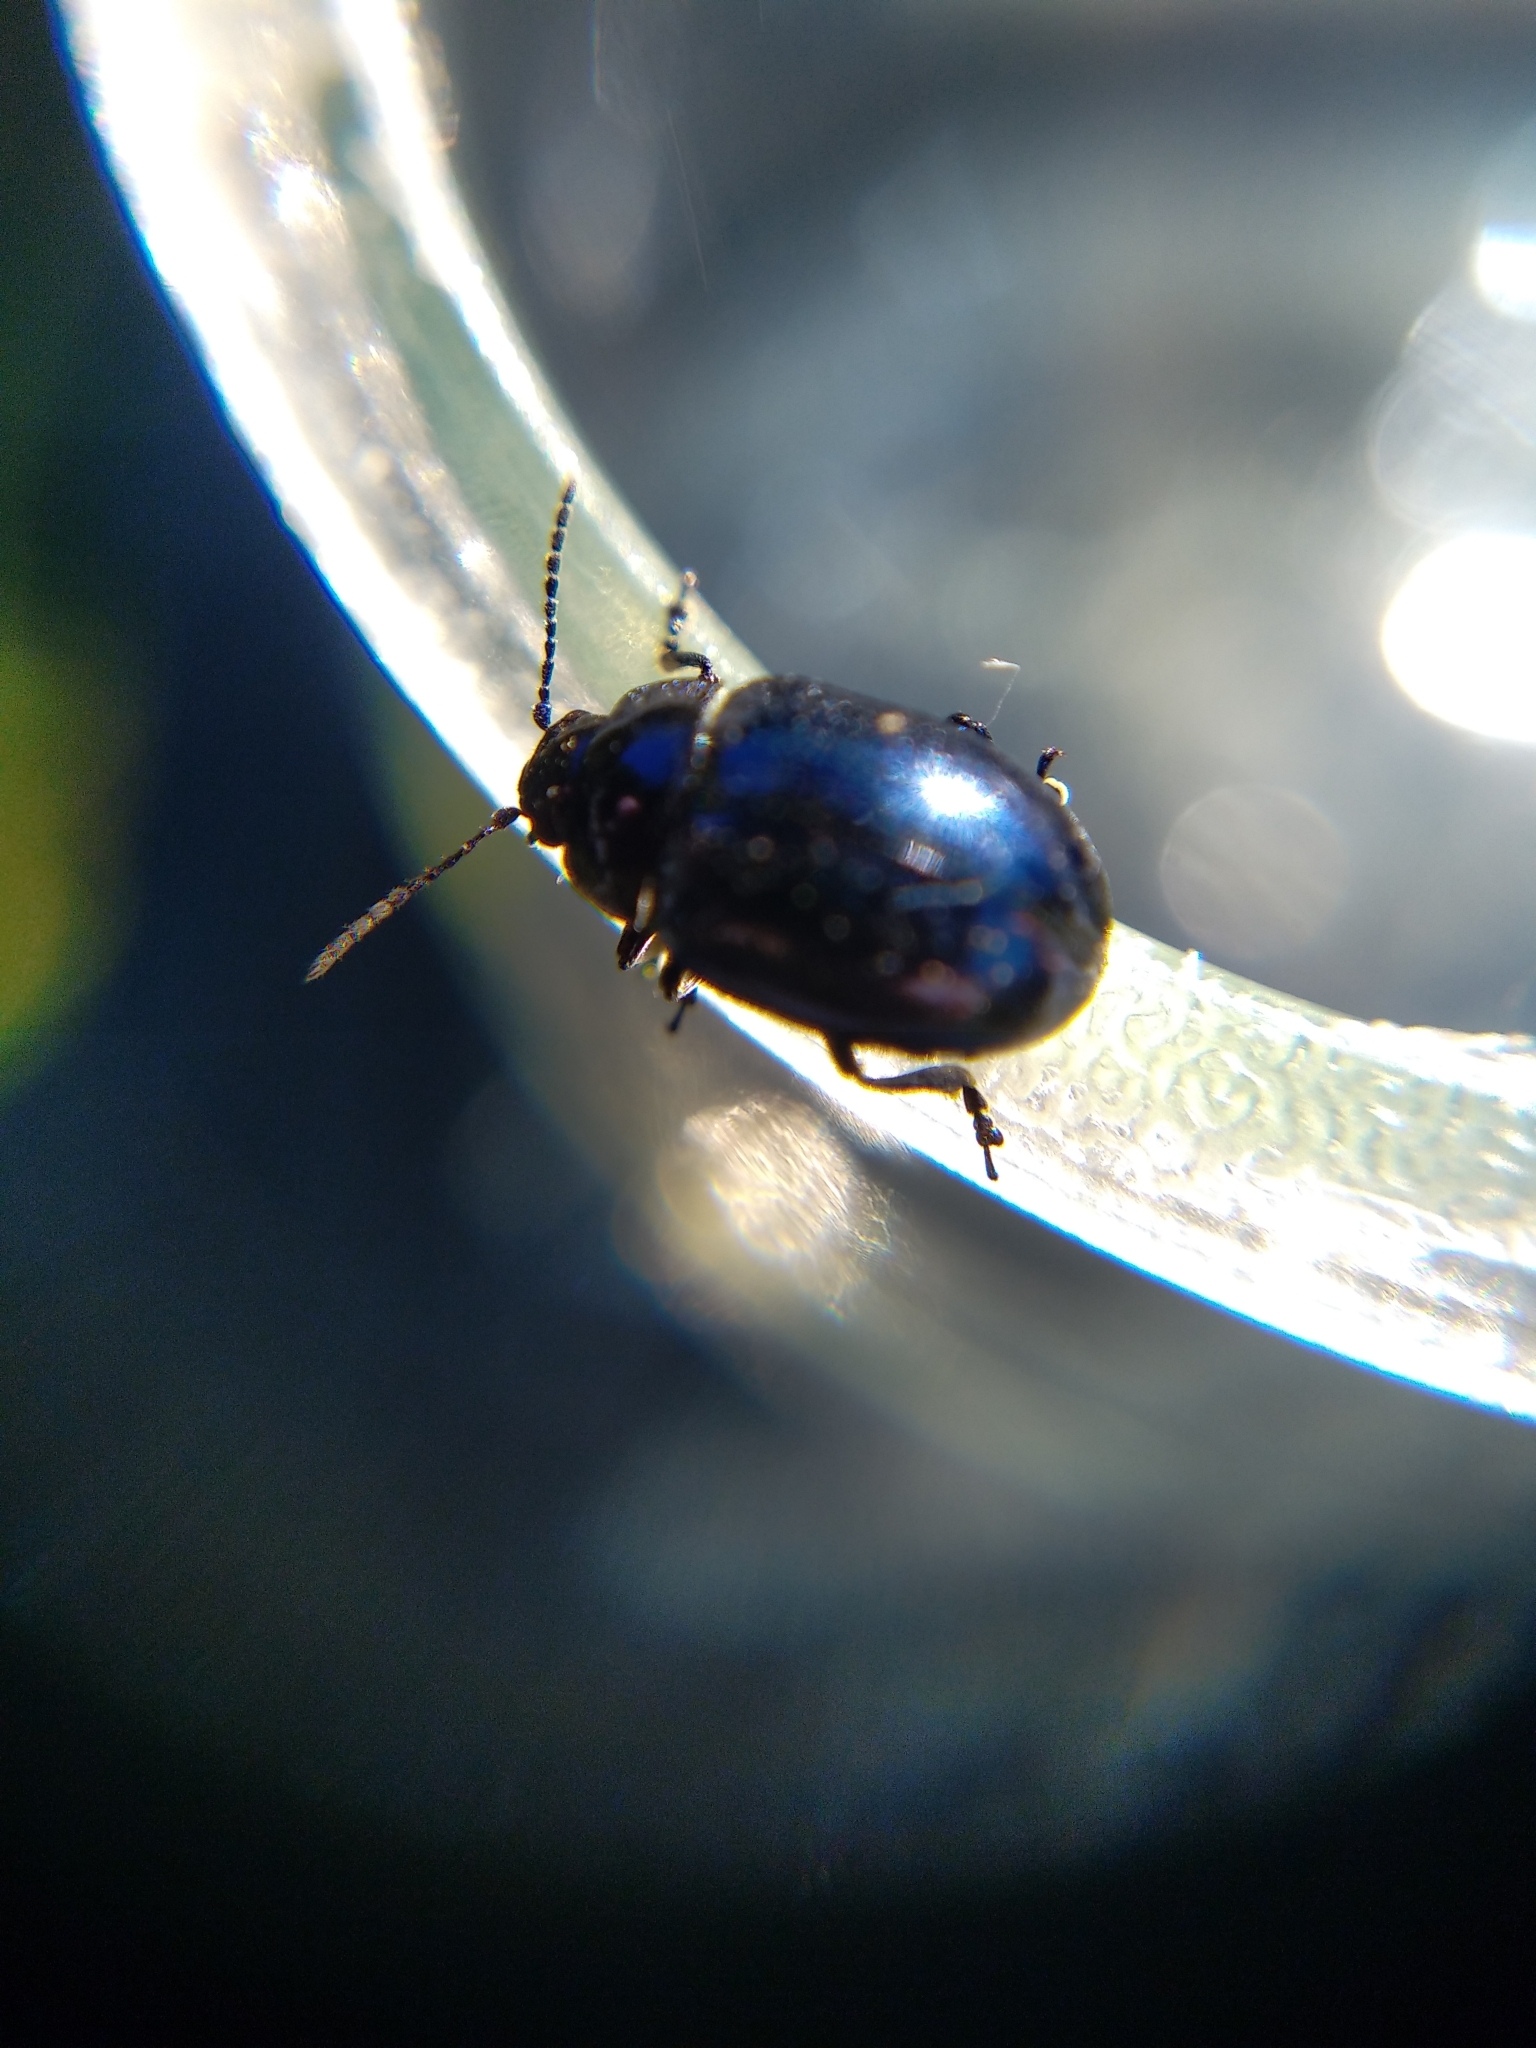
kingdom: Animalia
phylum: Arthropoda
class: Insecta
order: Coleoptera
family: Chrysomelidae
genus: Chrysolina
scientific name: Chrysolina coerulans
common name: Blue mint beetle
